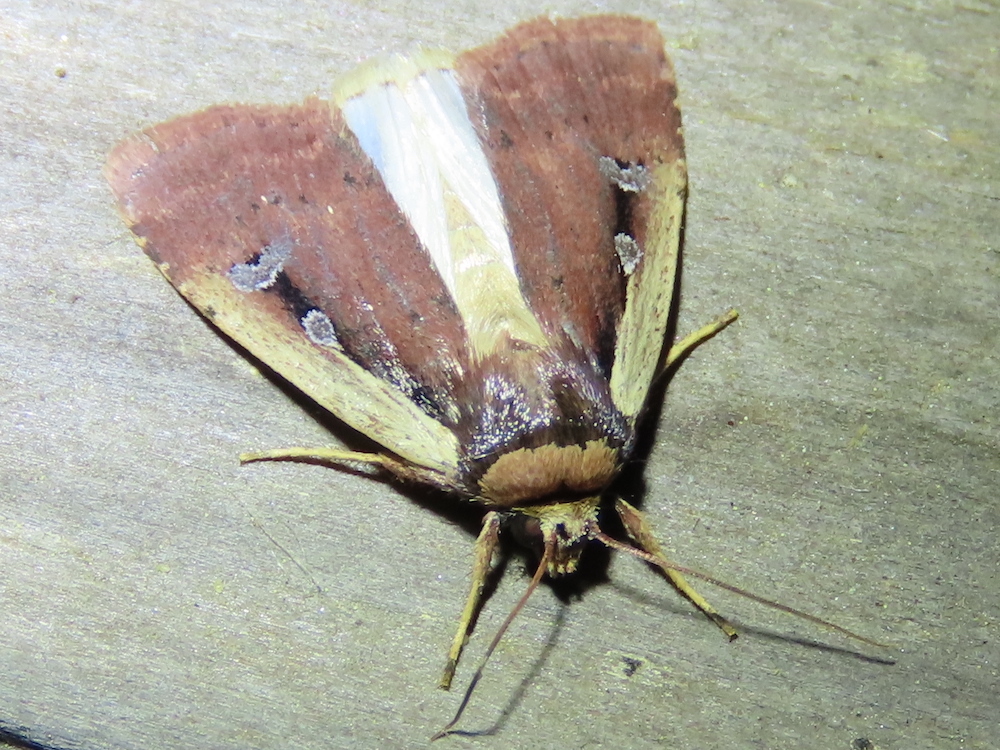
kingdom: Animalia
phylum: Arthropoda
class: Insecta
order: Lepidoptera
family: Noctuidae
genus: Ochropleura
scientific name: Ochropleura implecta
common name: Flame-shouldered dart
